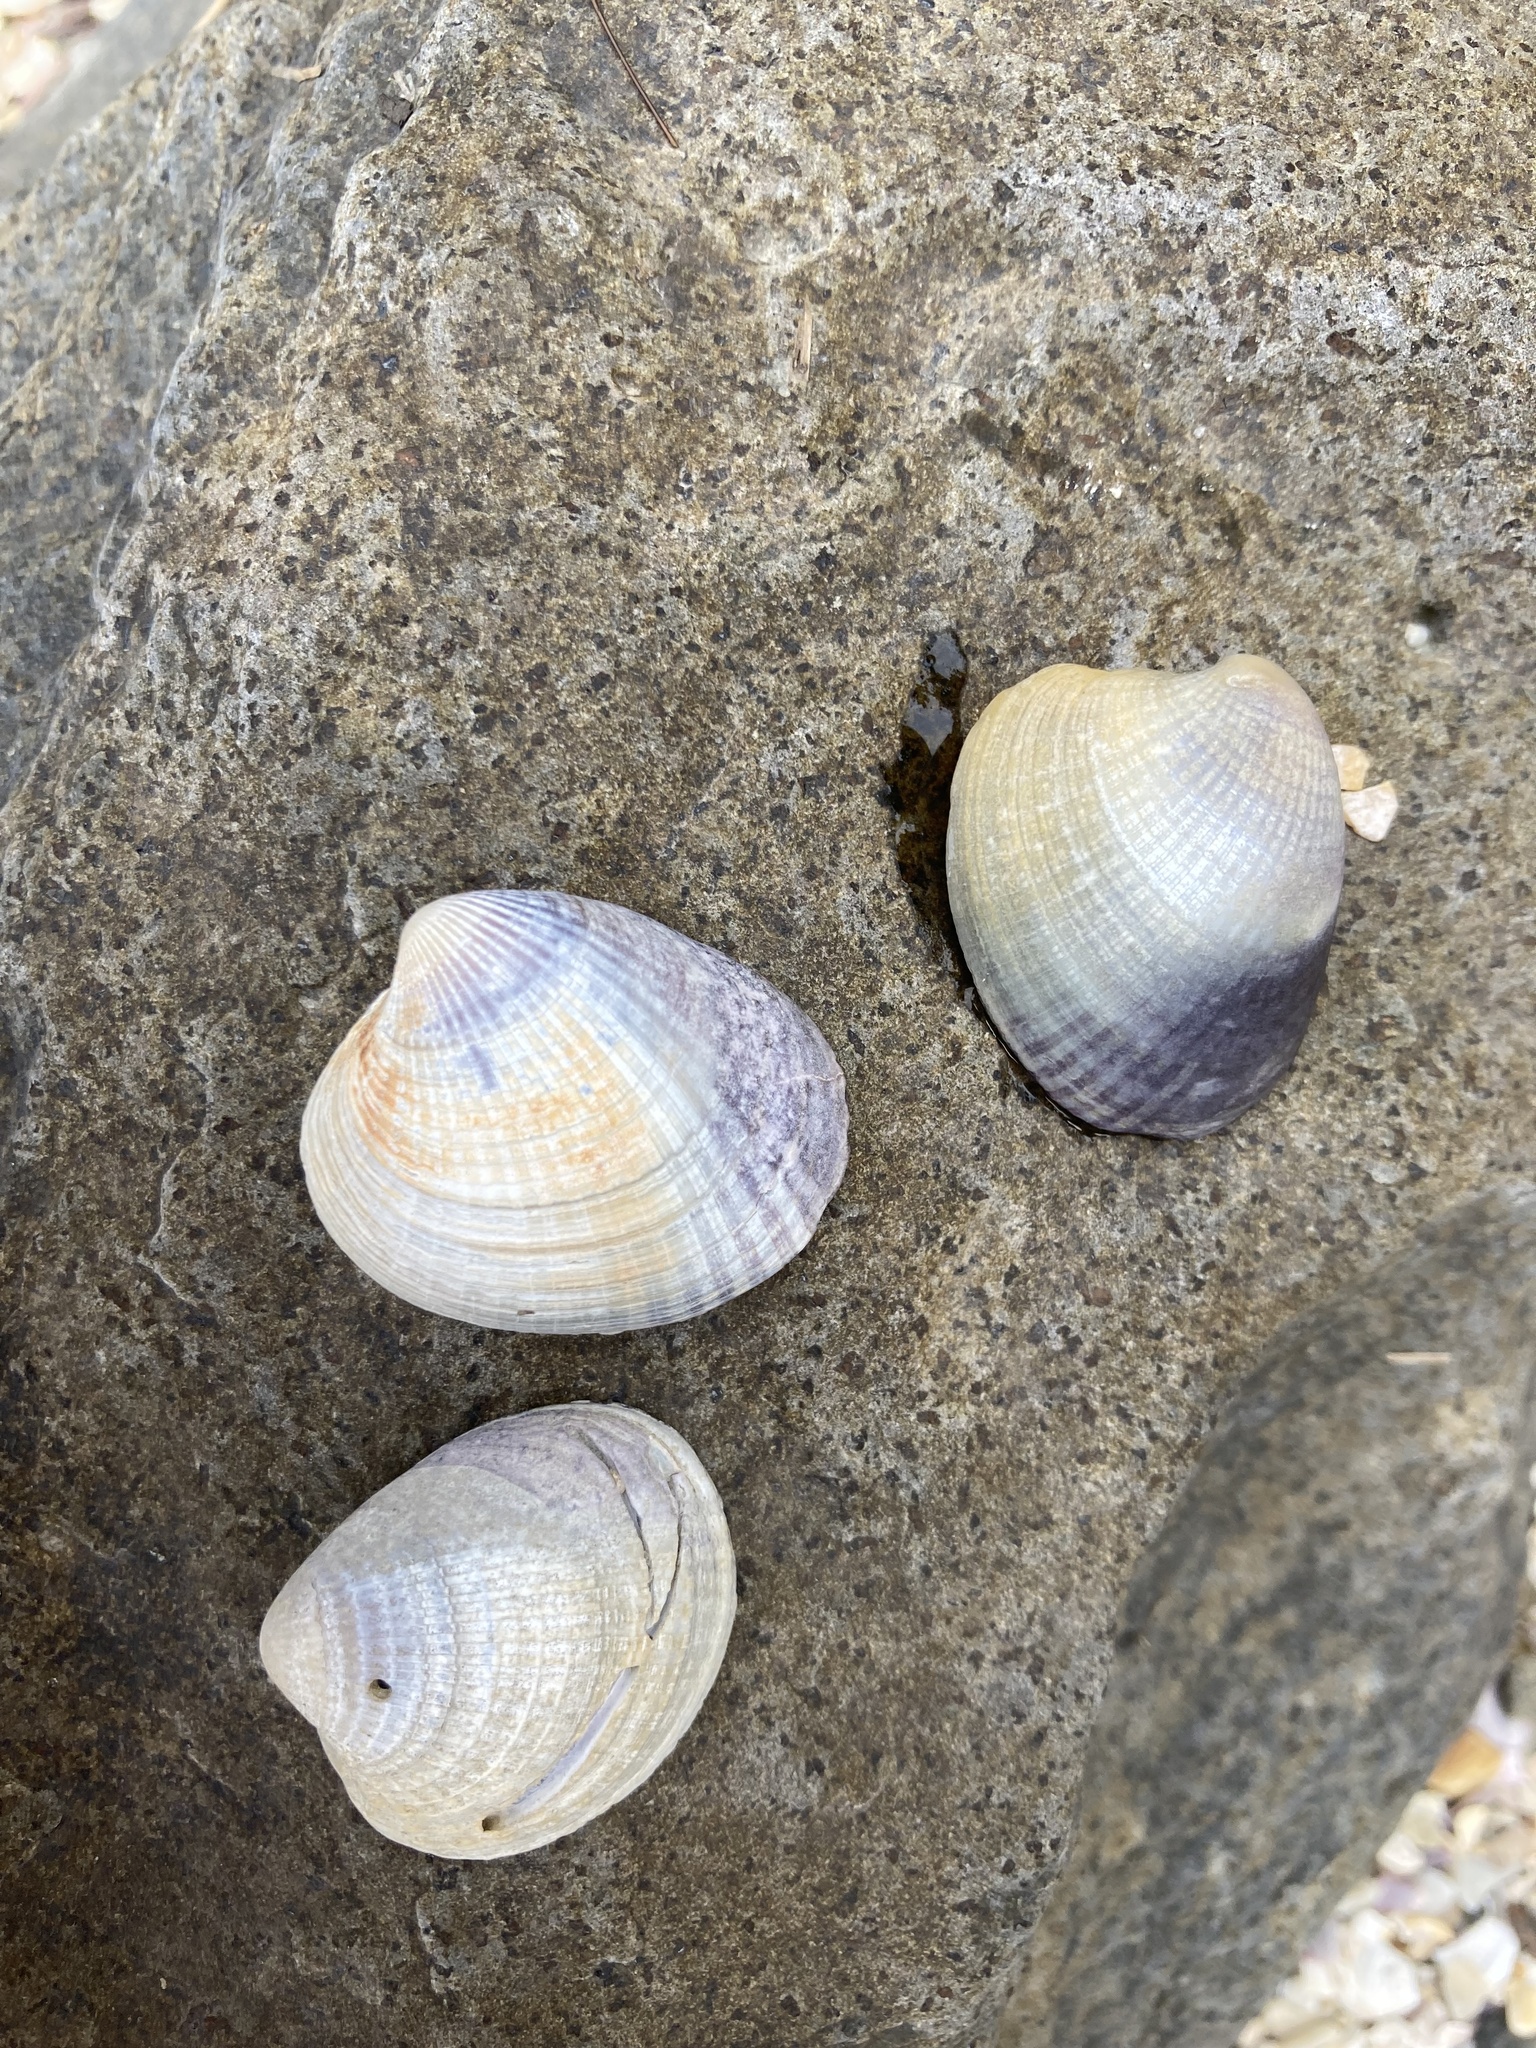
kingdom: Animalia
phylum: Mollusca
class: Bivalvia
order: Venerida
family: Veneridae
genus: Austrovenus
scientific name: Austrovenus stutchburyi
